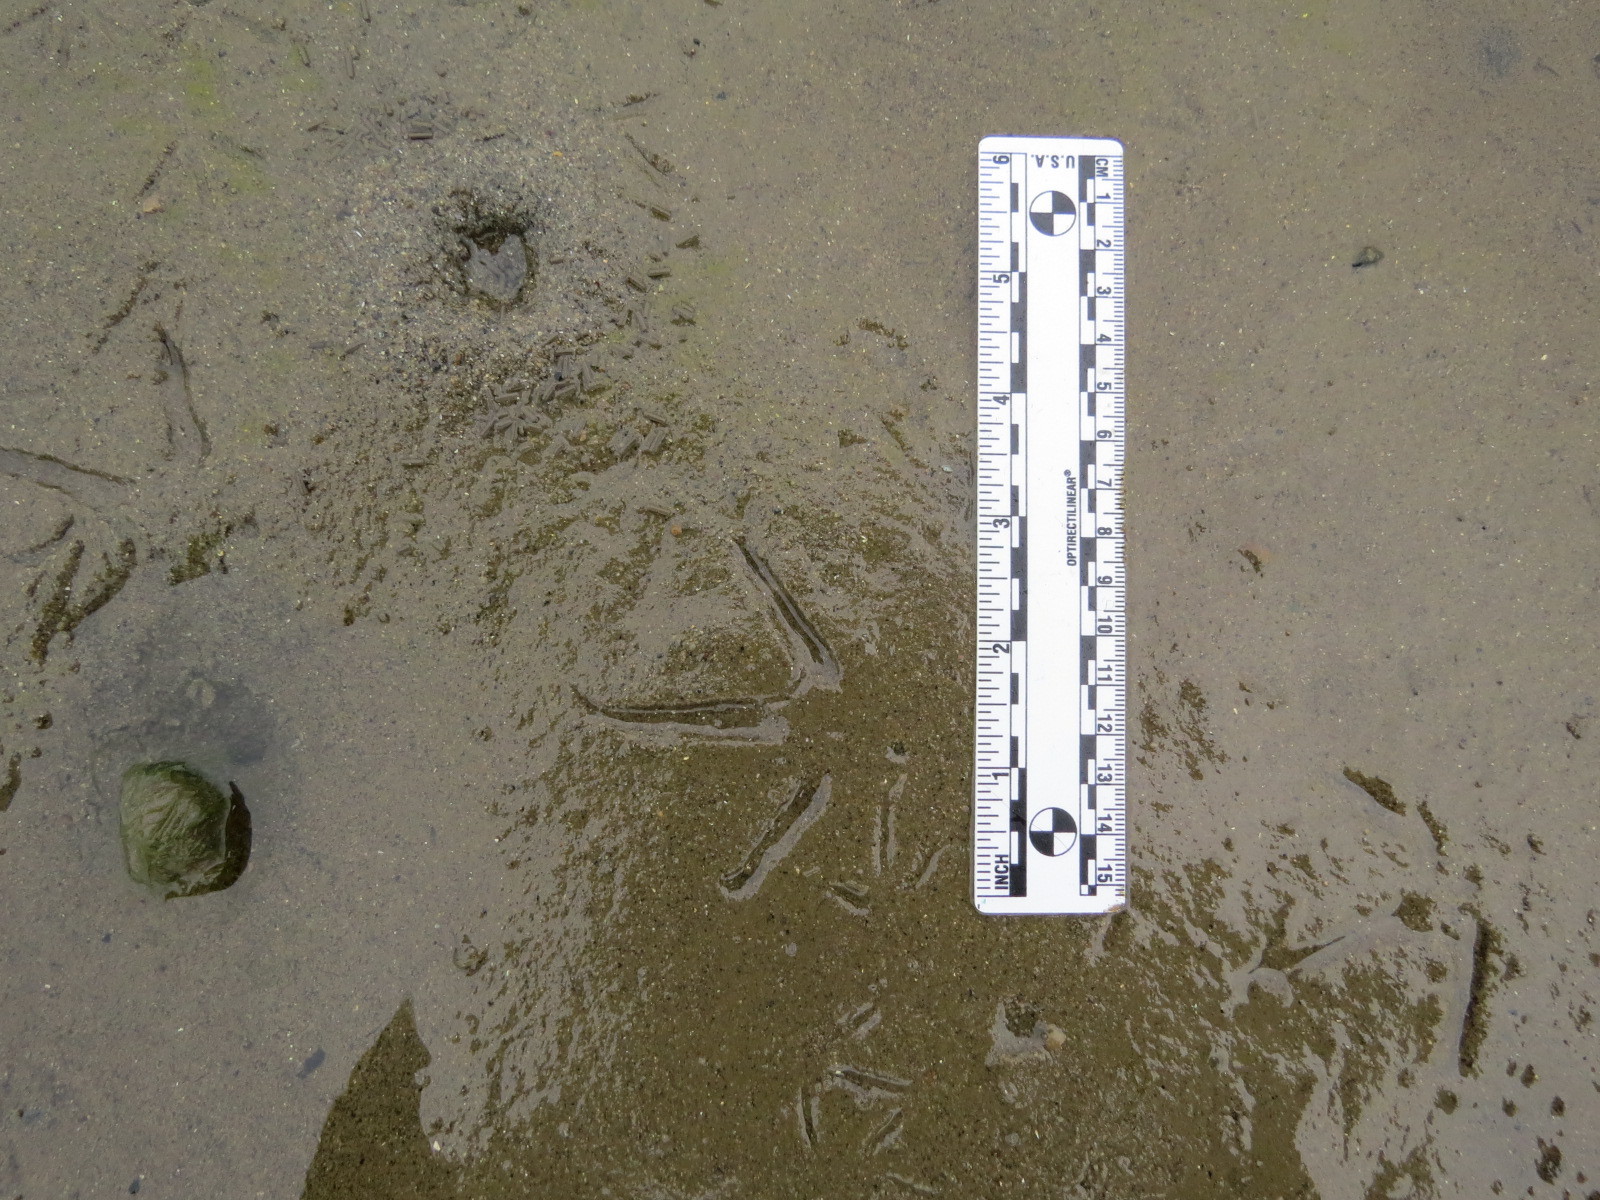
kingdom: Animalia
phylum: Chordata
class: Aves
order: Charadriiformes
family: Scolopacidae
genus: Numenius
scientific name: Numenius americanus
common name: Long-billed curlew
